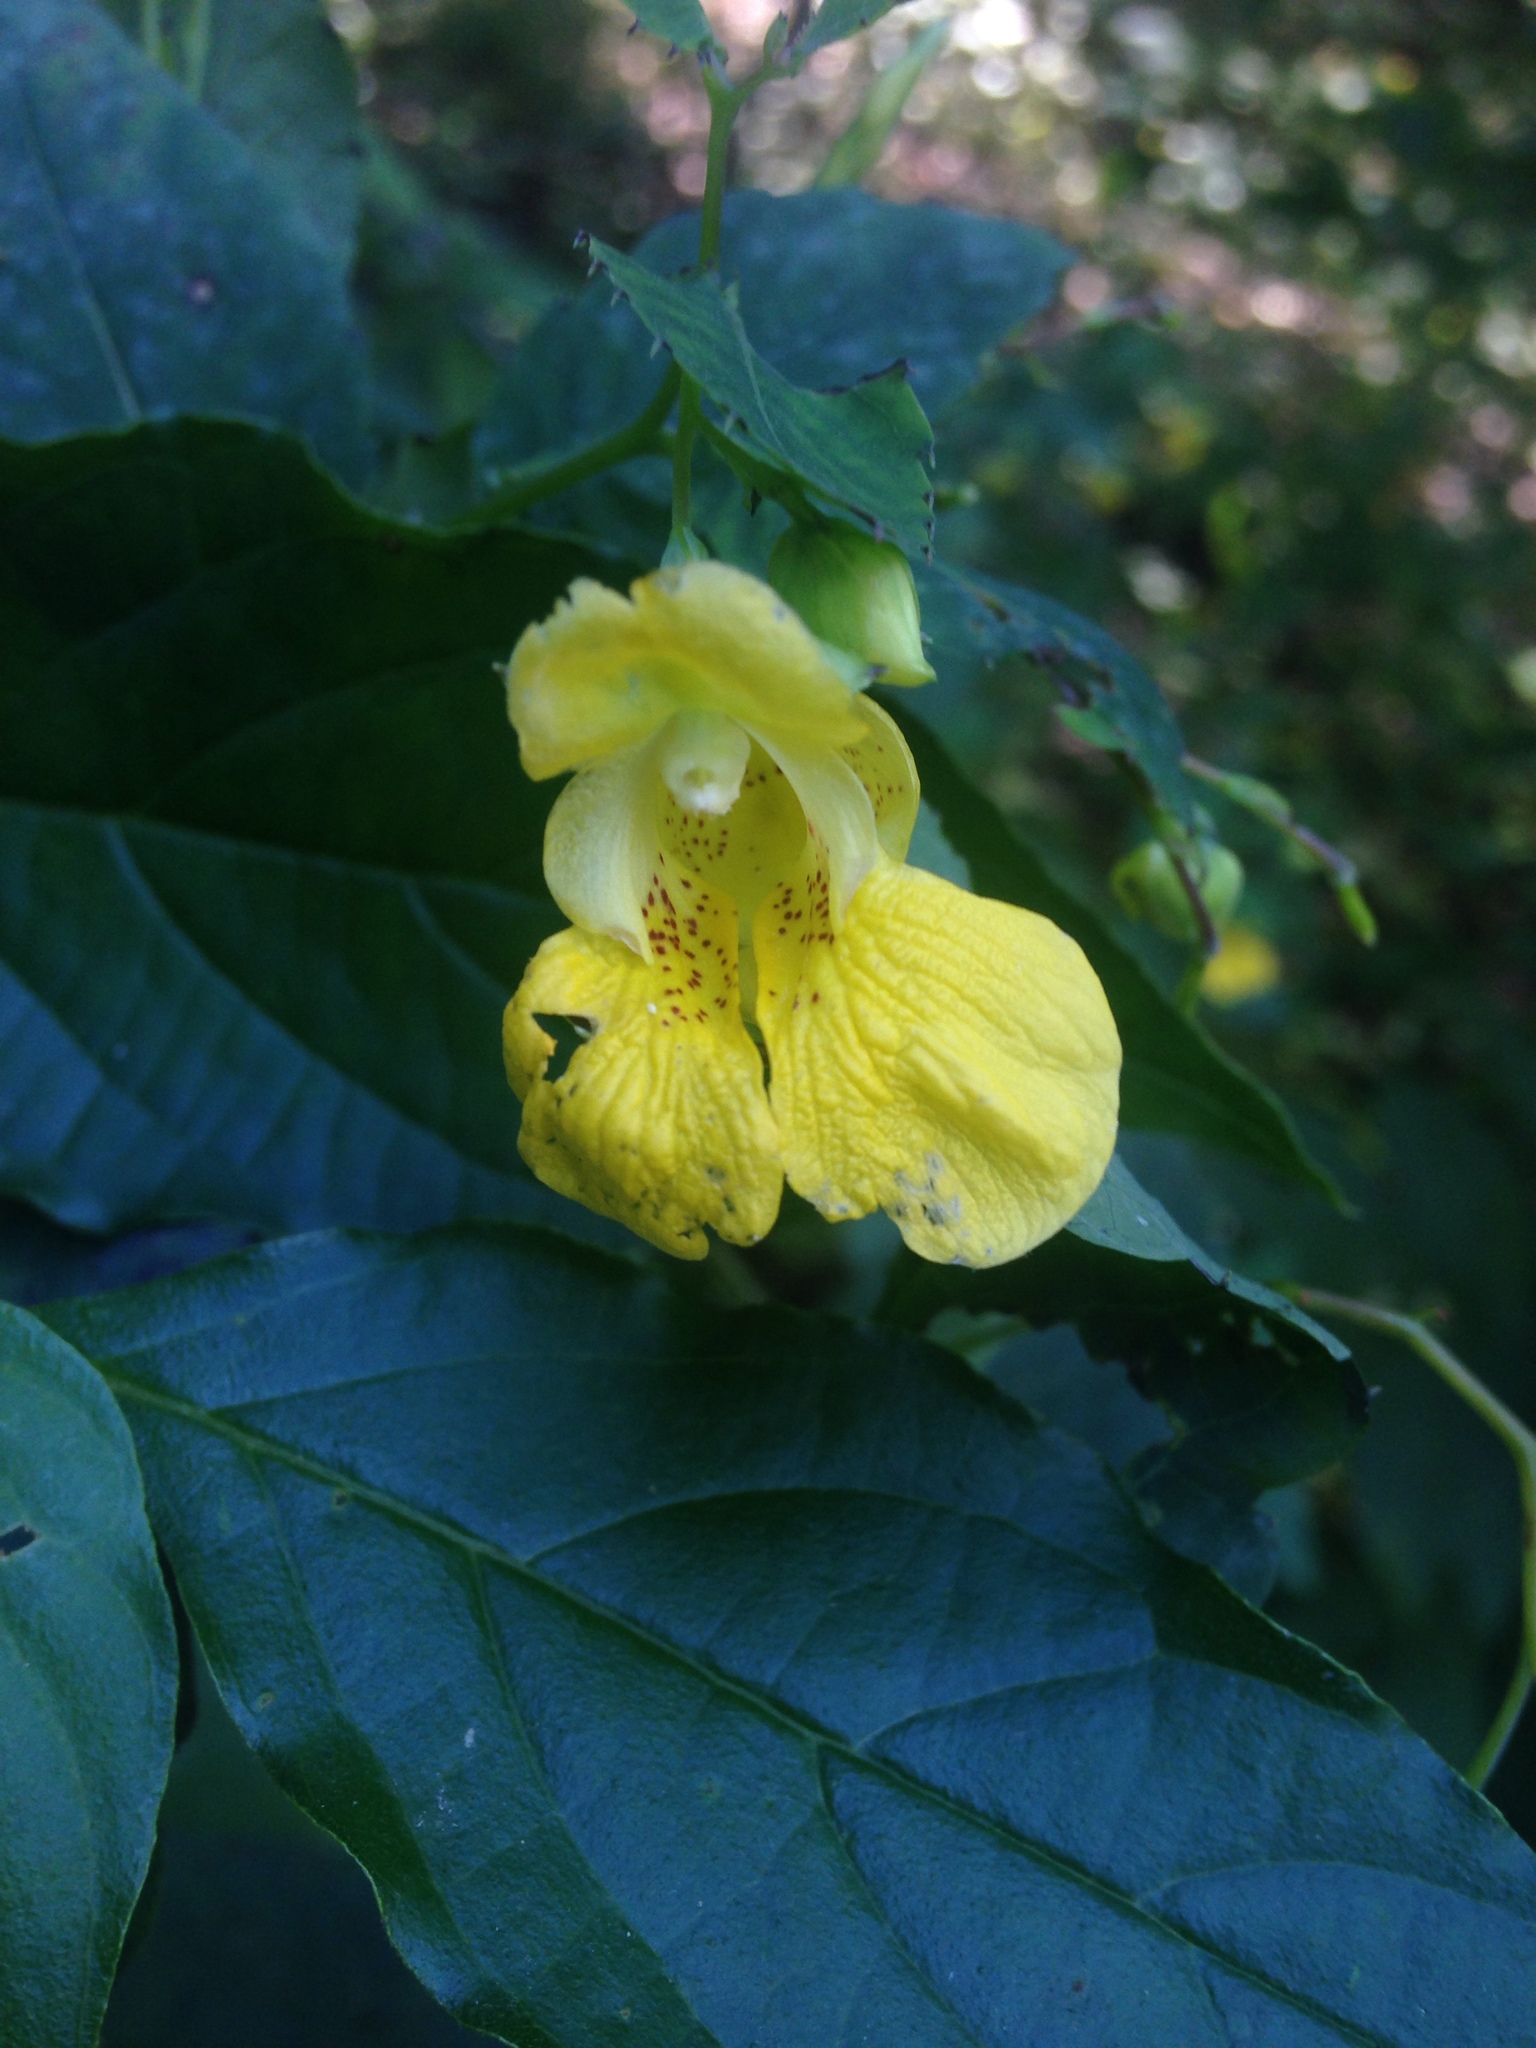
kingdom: Plantae
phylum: Tracheophyta
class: Magnoliopsida
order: Ericales
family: Balsaminaceae
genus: Impatiens
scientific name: Impatiens pallida
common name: Pale snapweed
